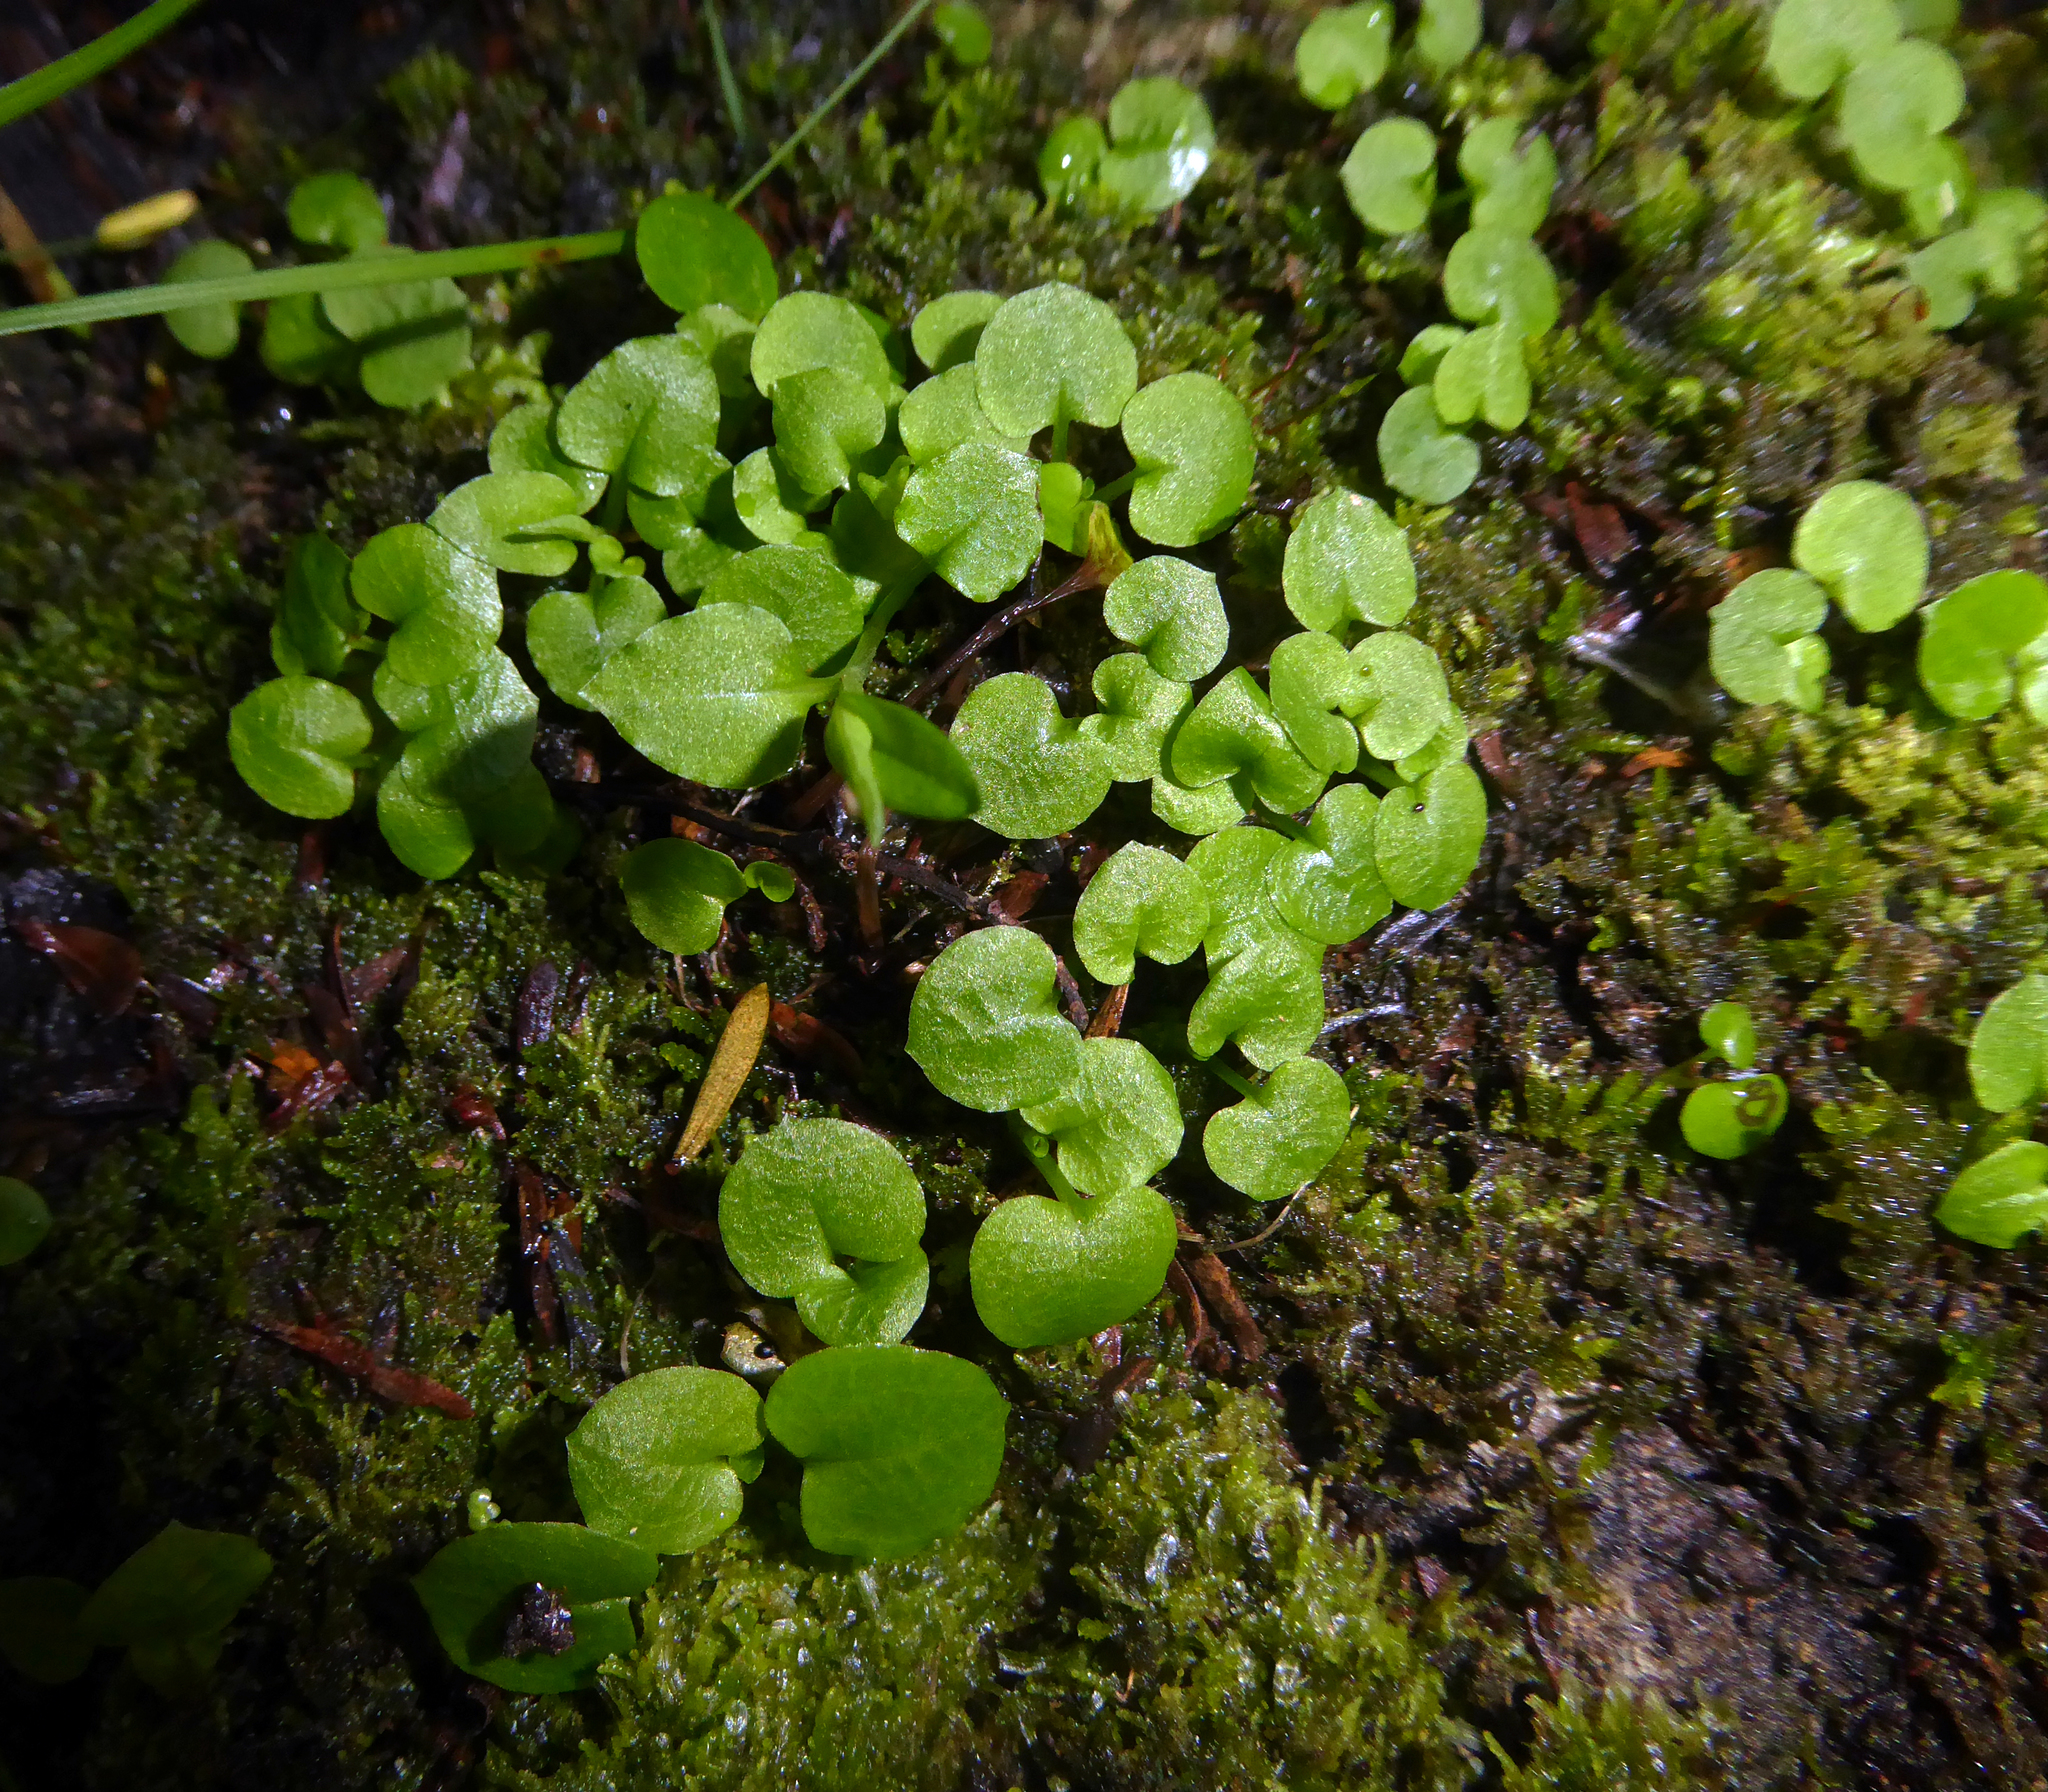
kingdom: Plantae
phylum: Tracheophyta
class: Liliopsida
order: Asparagales
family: Orchidaceae
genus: Pterostylis
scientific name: Pterostylis trullifolia
